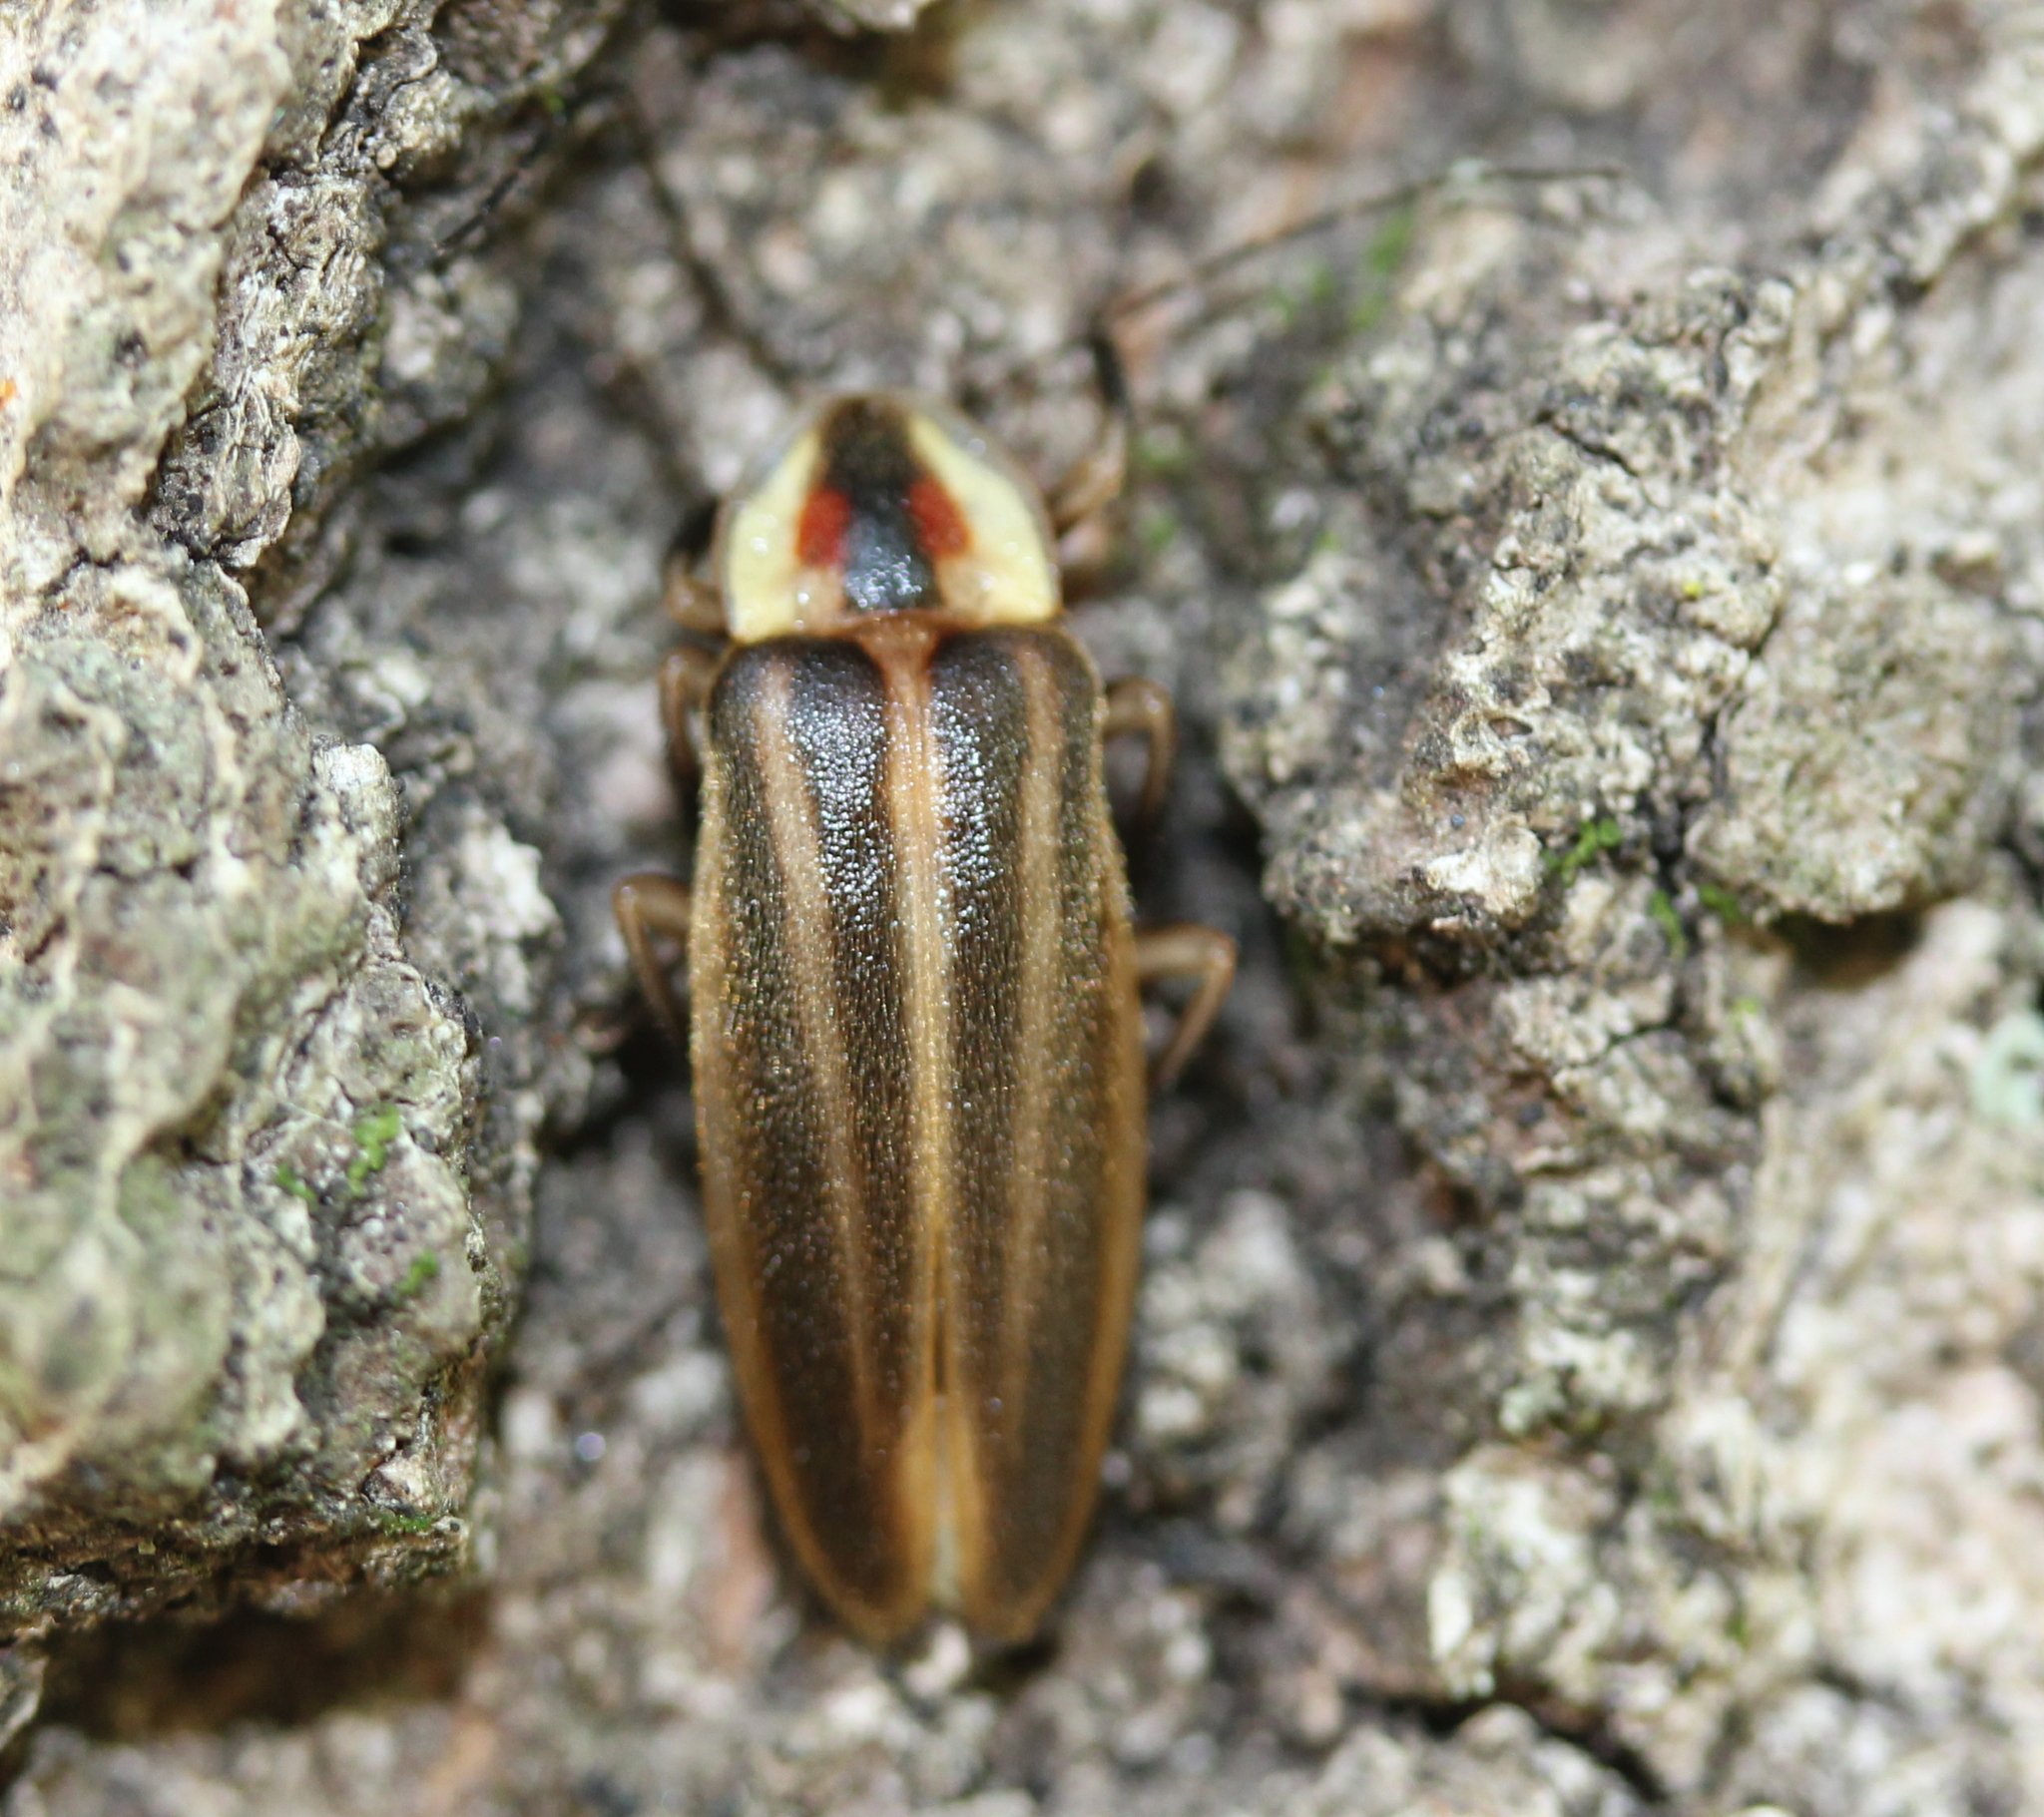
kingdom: Animalia
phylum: Arthropoda
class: Insecta
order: Coleoptera
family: Lampyridae
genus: Photuris
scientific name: Photuris
